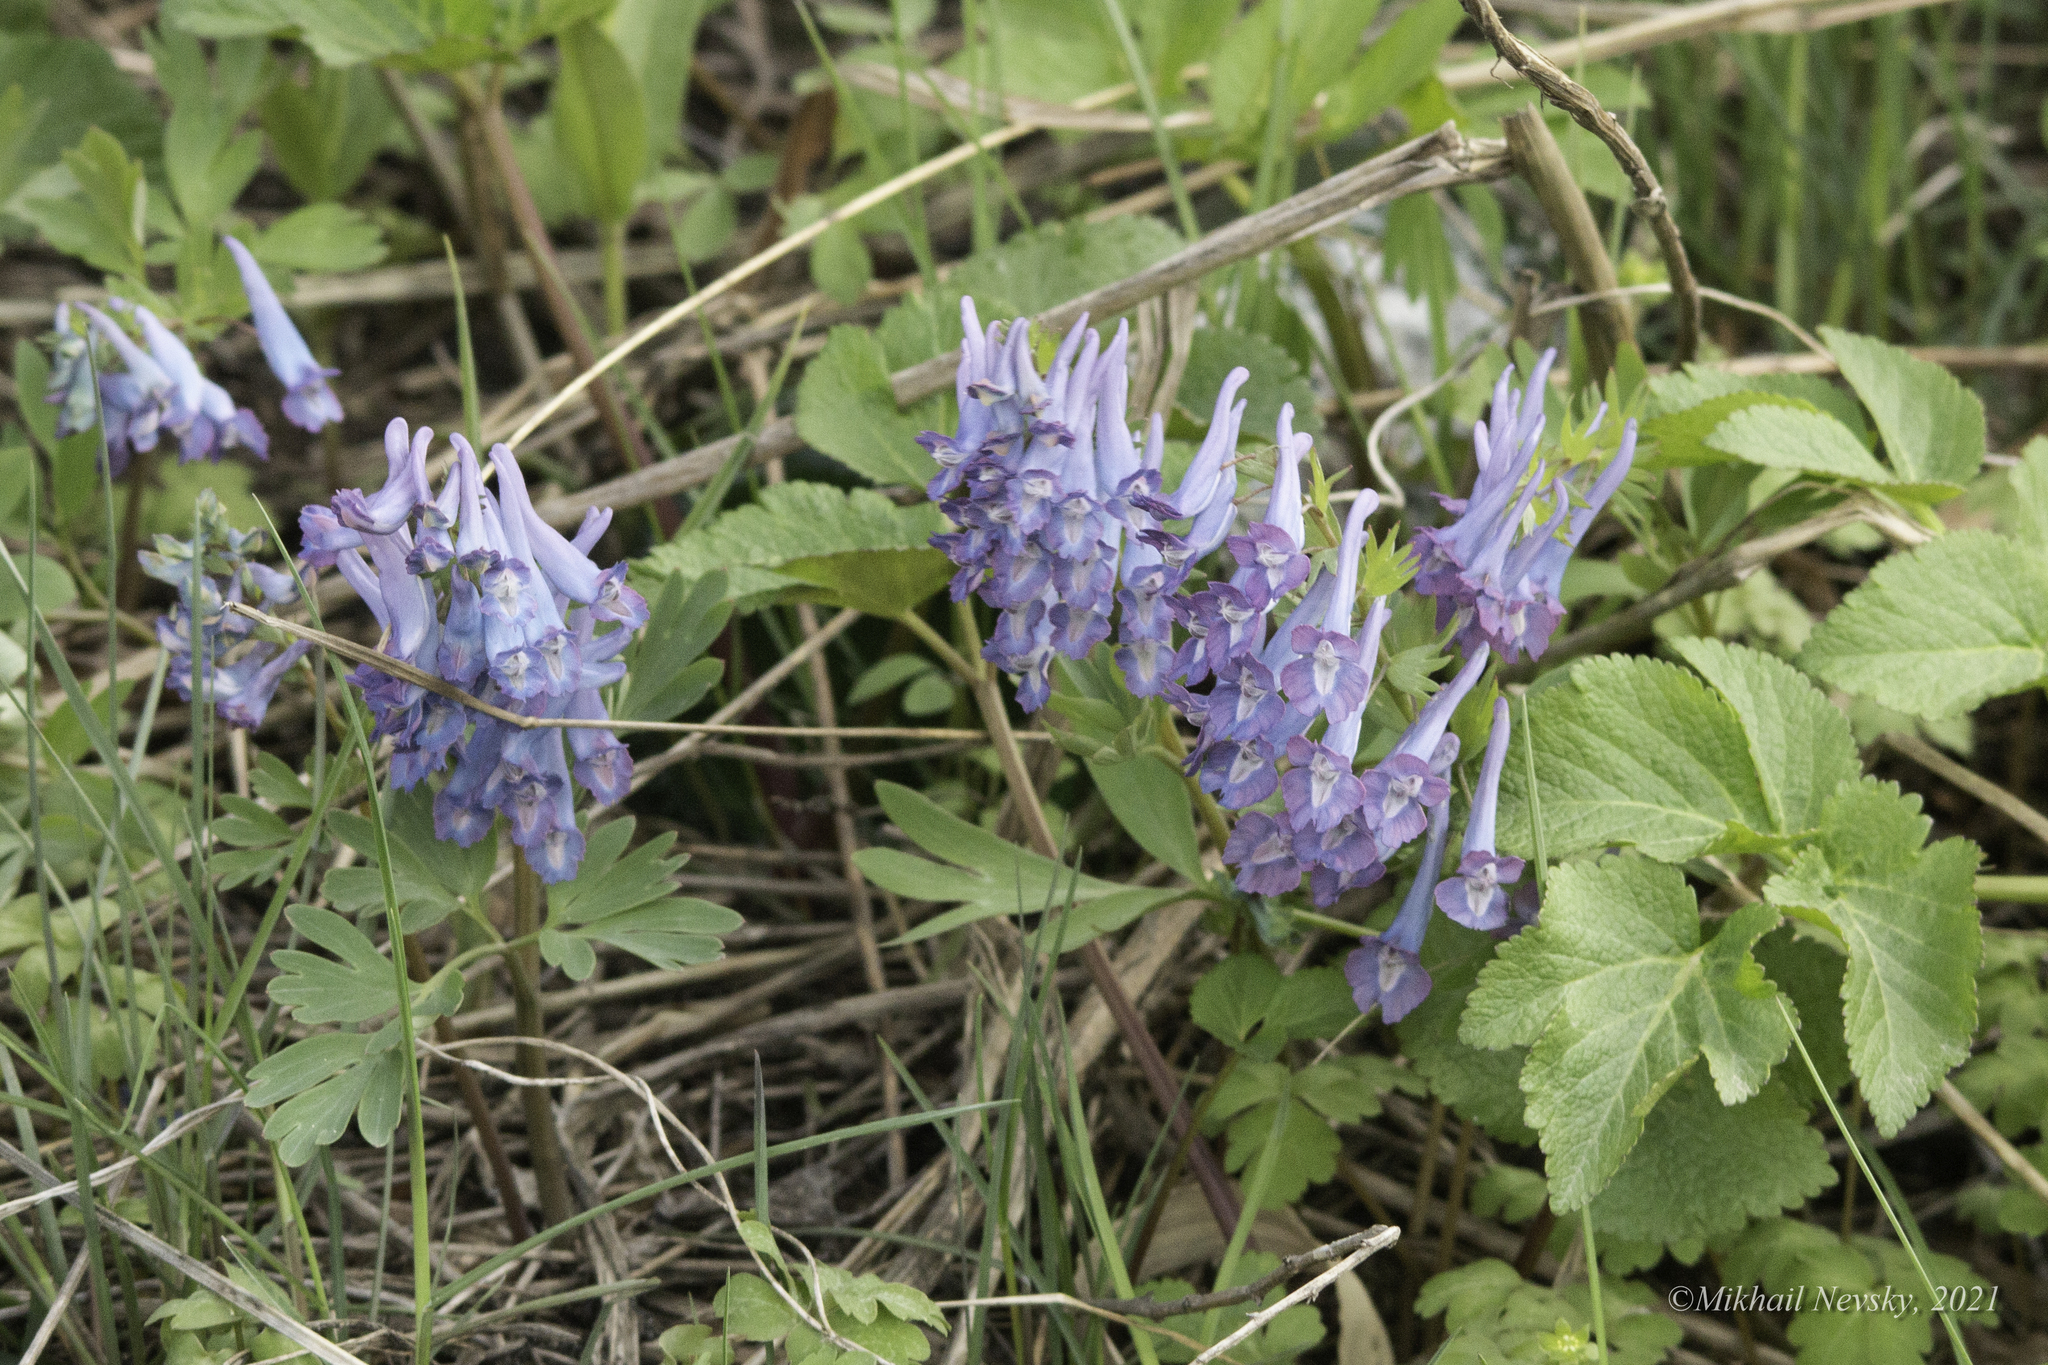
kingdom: Plantae
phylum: Tracheophyta
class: Magnoliopsida
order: Ranunculales
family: Papaveraceae
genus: Corydalis
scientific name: Corydalis turtschaninovii
